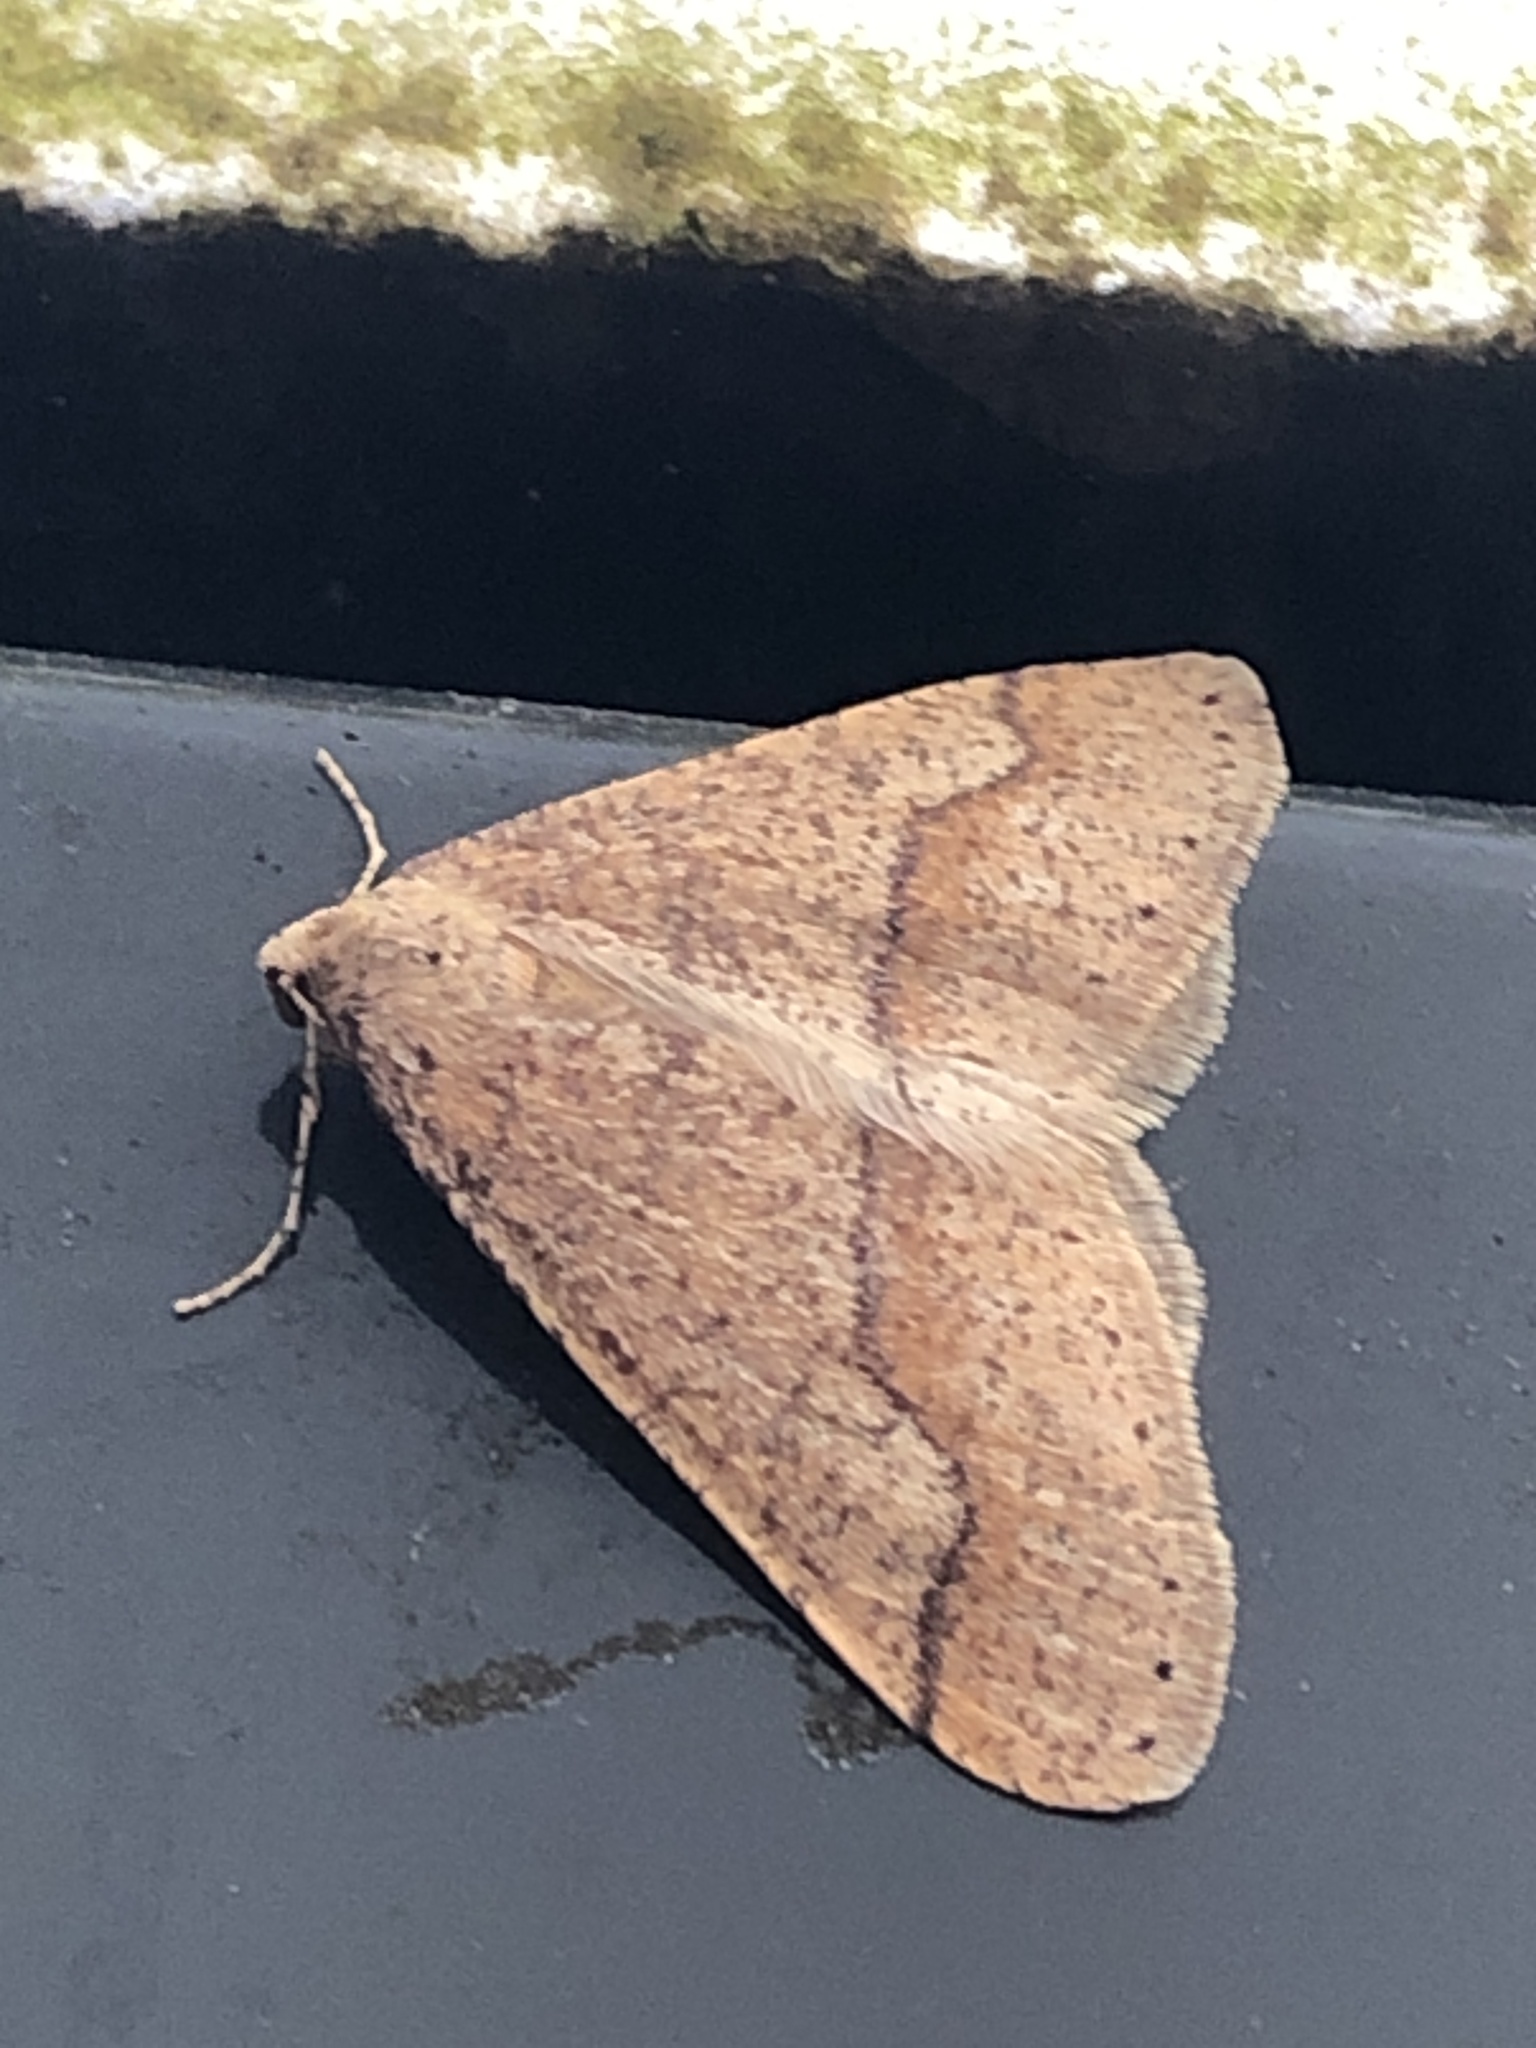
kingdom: Animalia
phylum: Arthropoda
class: Insecta
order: Lepidoptera
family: Geometridae
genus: Agriopis
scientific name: Agriopis marginaria
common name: Dotted border
